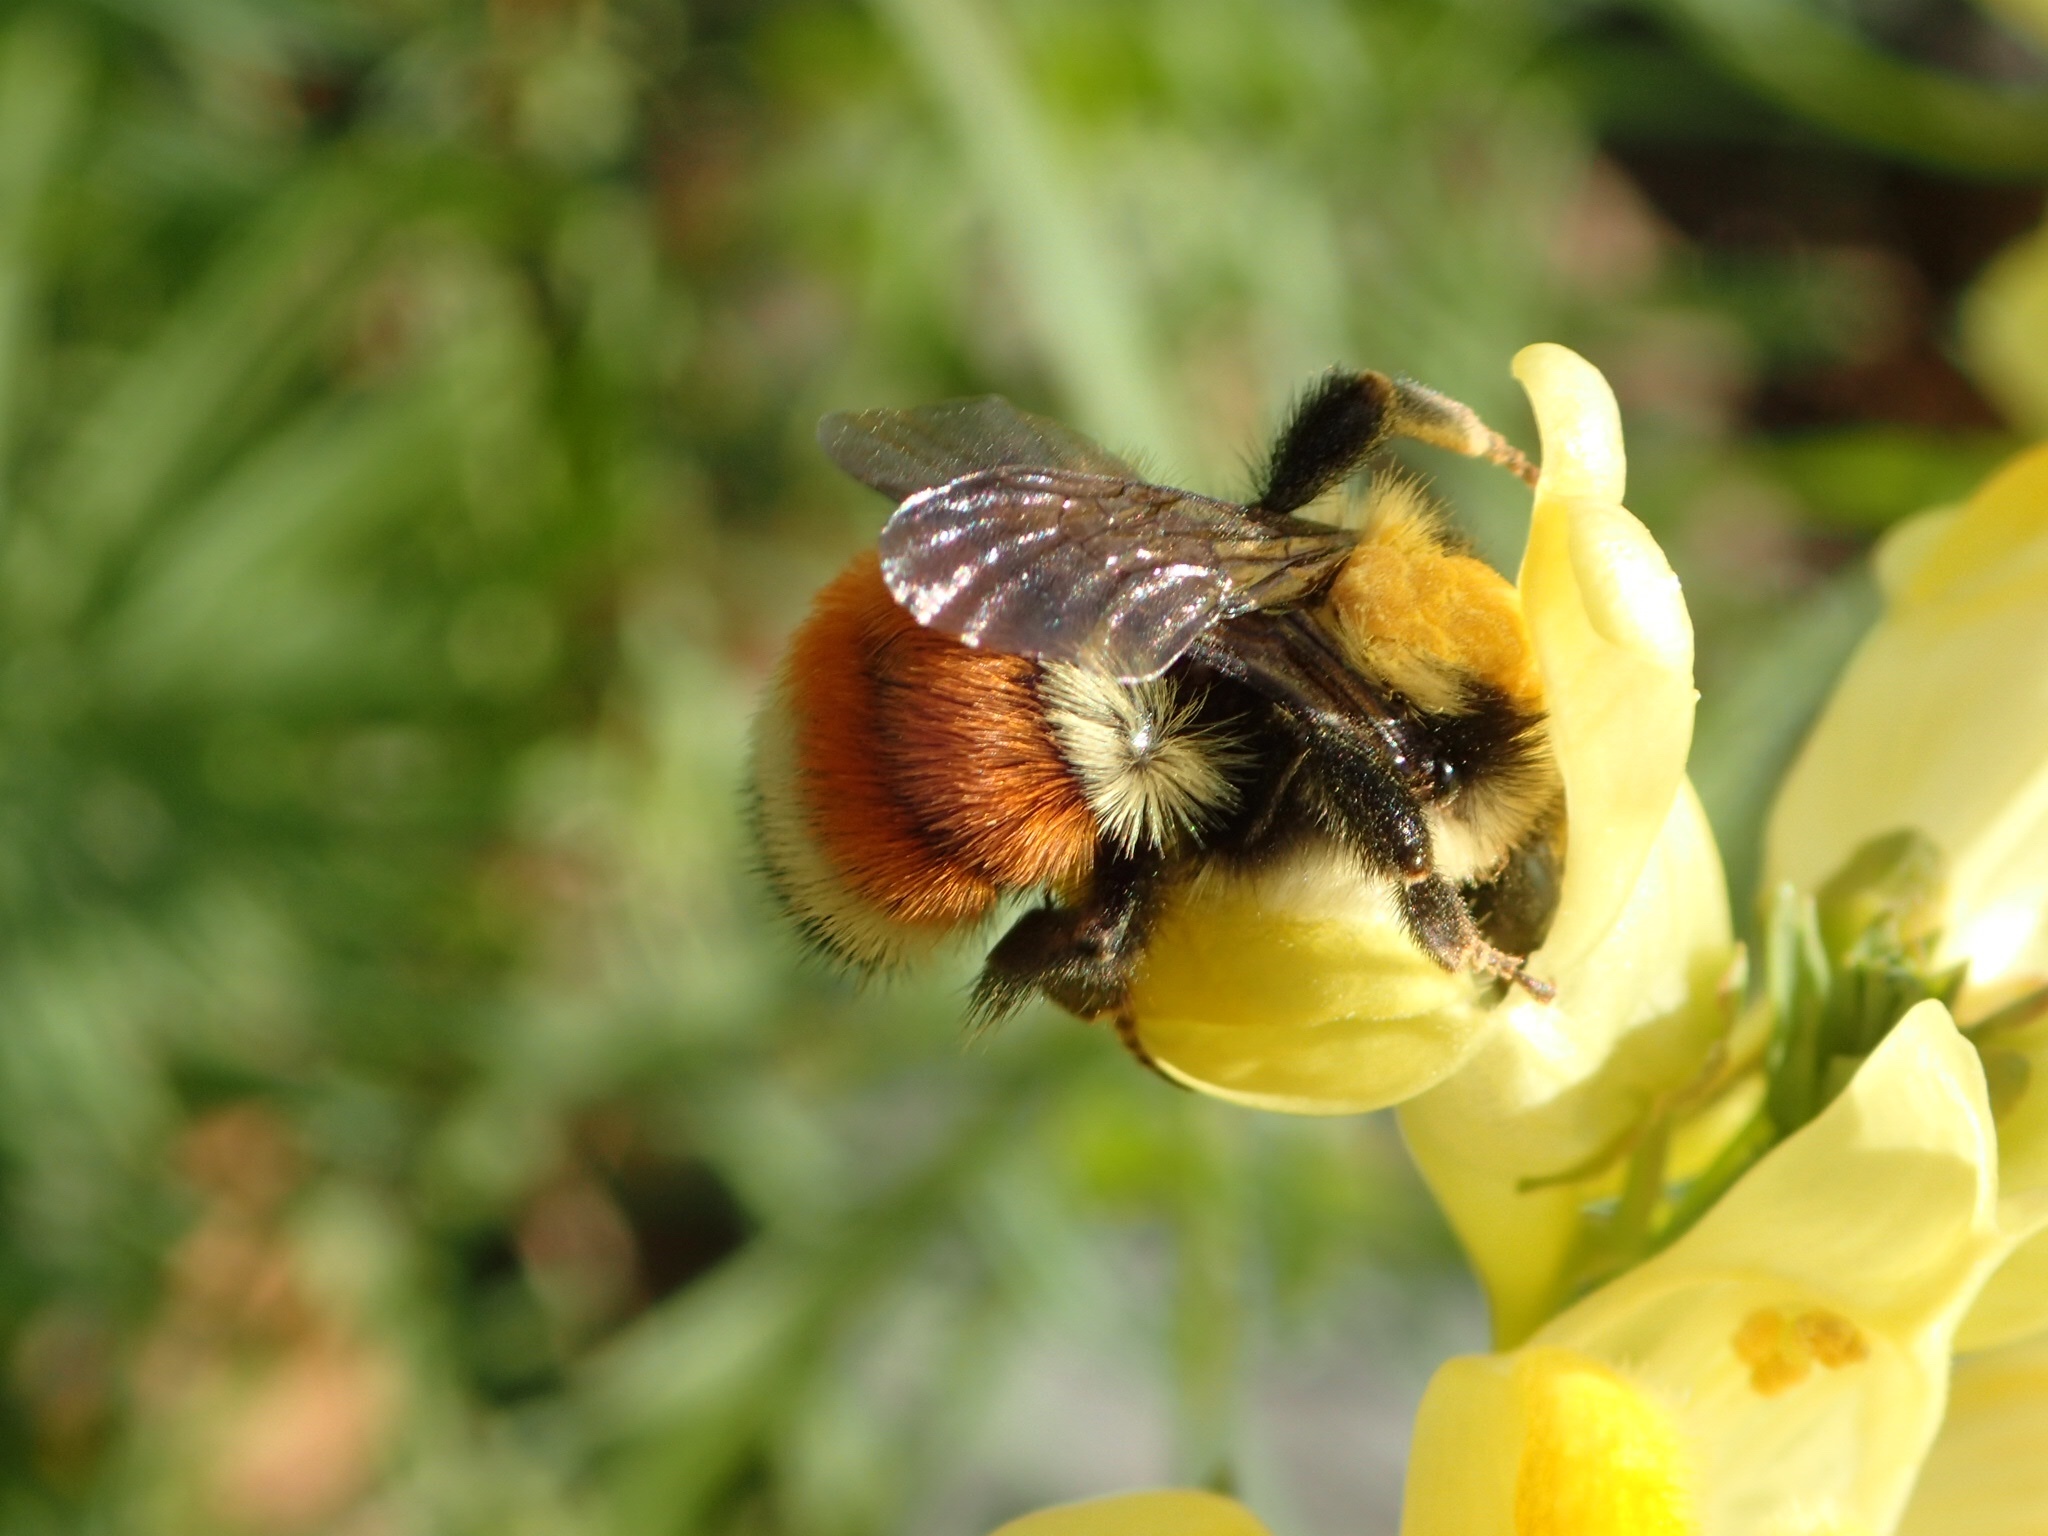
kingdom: Animalia
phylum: Arthropoda
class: Insecta
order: Hymenoptera
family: Apidae
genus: Bombus
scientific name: Bombus ternarius
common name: Tri-colored bumble bee
